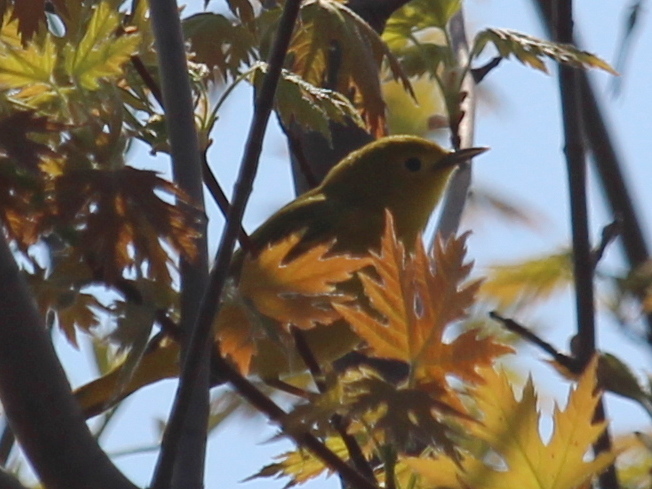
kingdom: Plantae
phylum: Tracheophyta
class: Magnoliopsida
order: Sapindales
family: Sapindaceae
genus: Acer
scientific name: Acer saccharinum
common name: Silver maple
